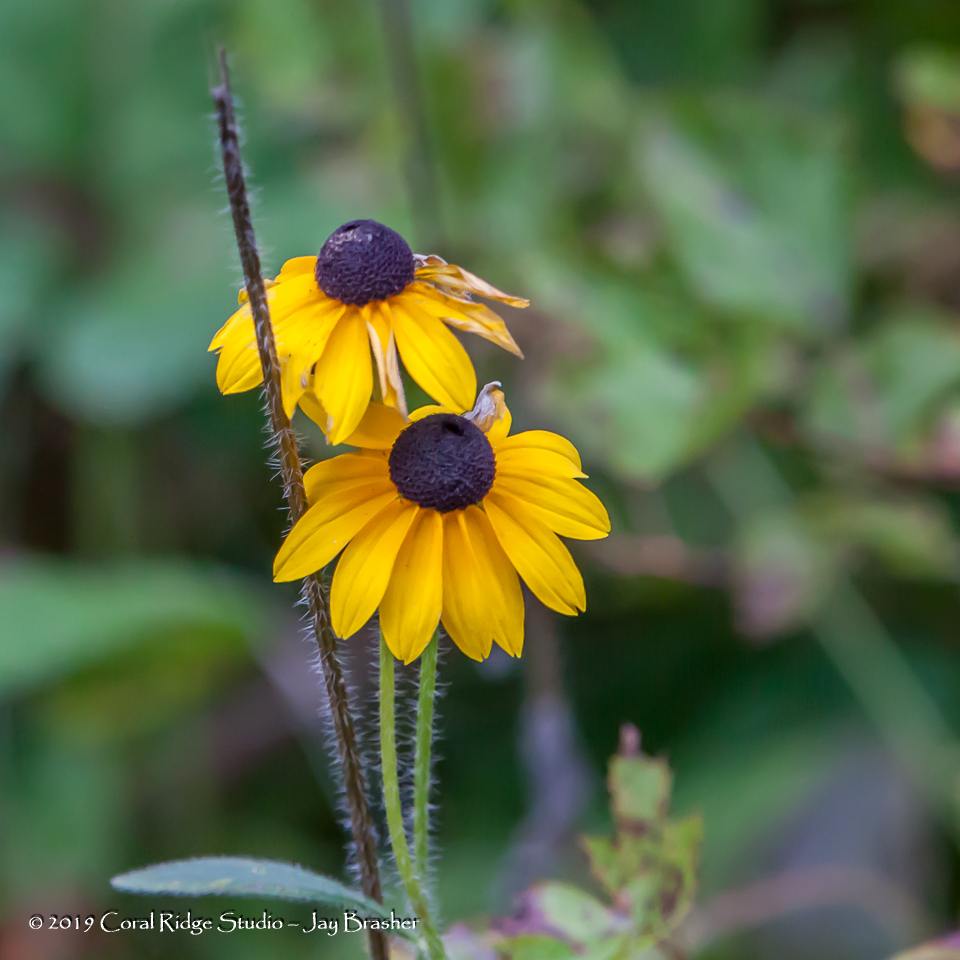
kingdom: Plantae
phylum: Tracheophyta
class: Magnoliopsida
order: Asterales
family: Asteraceae
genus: Rudbeckia
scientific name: Rudbeckia hirta
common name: Black-eyed-susan
